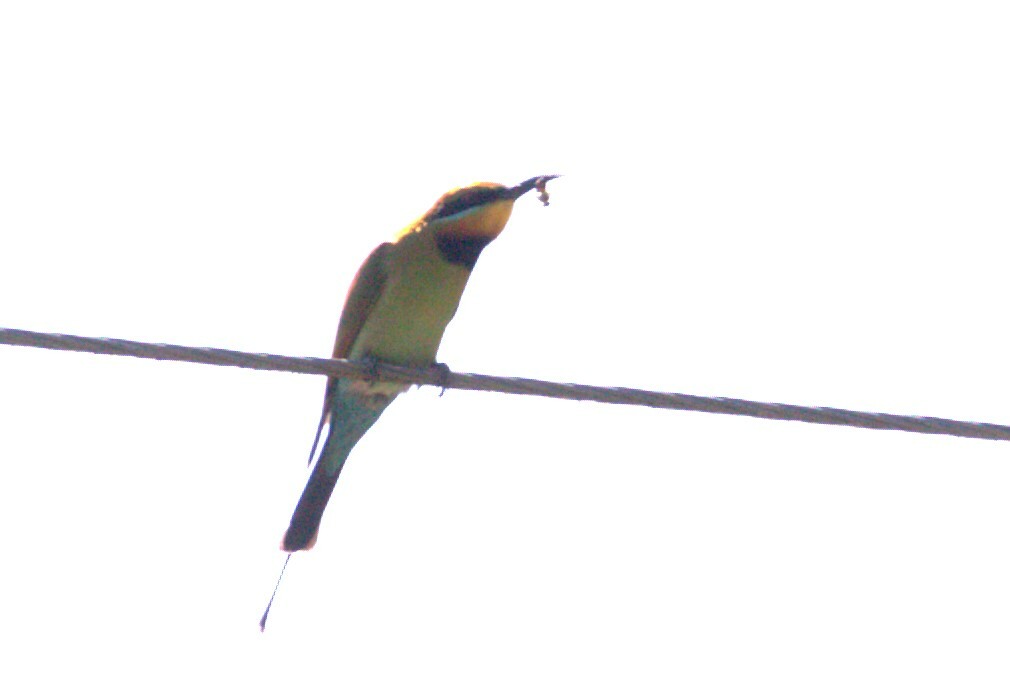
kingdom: Animalia
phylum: Chordata
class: Aves
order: Coraciiformes
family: Meropidae
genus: Merops
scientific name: Merops ornatus
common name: Rainbow bee-eater
